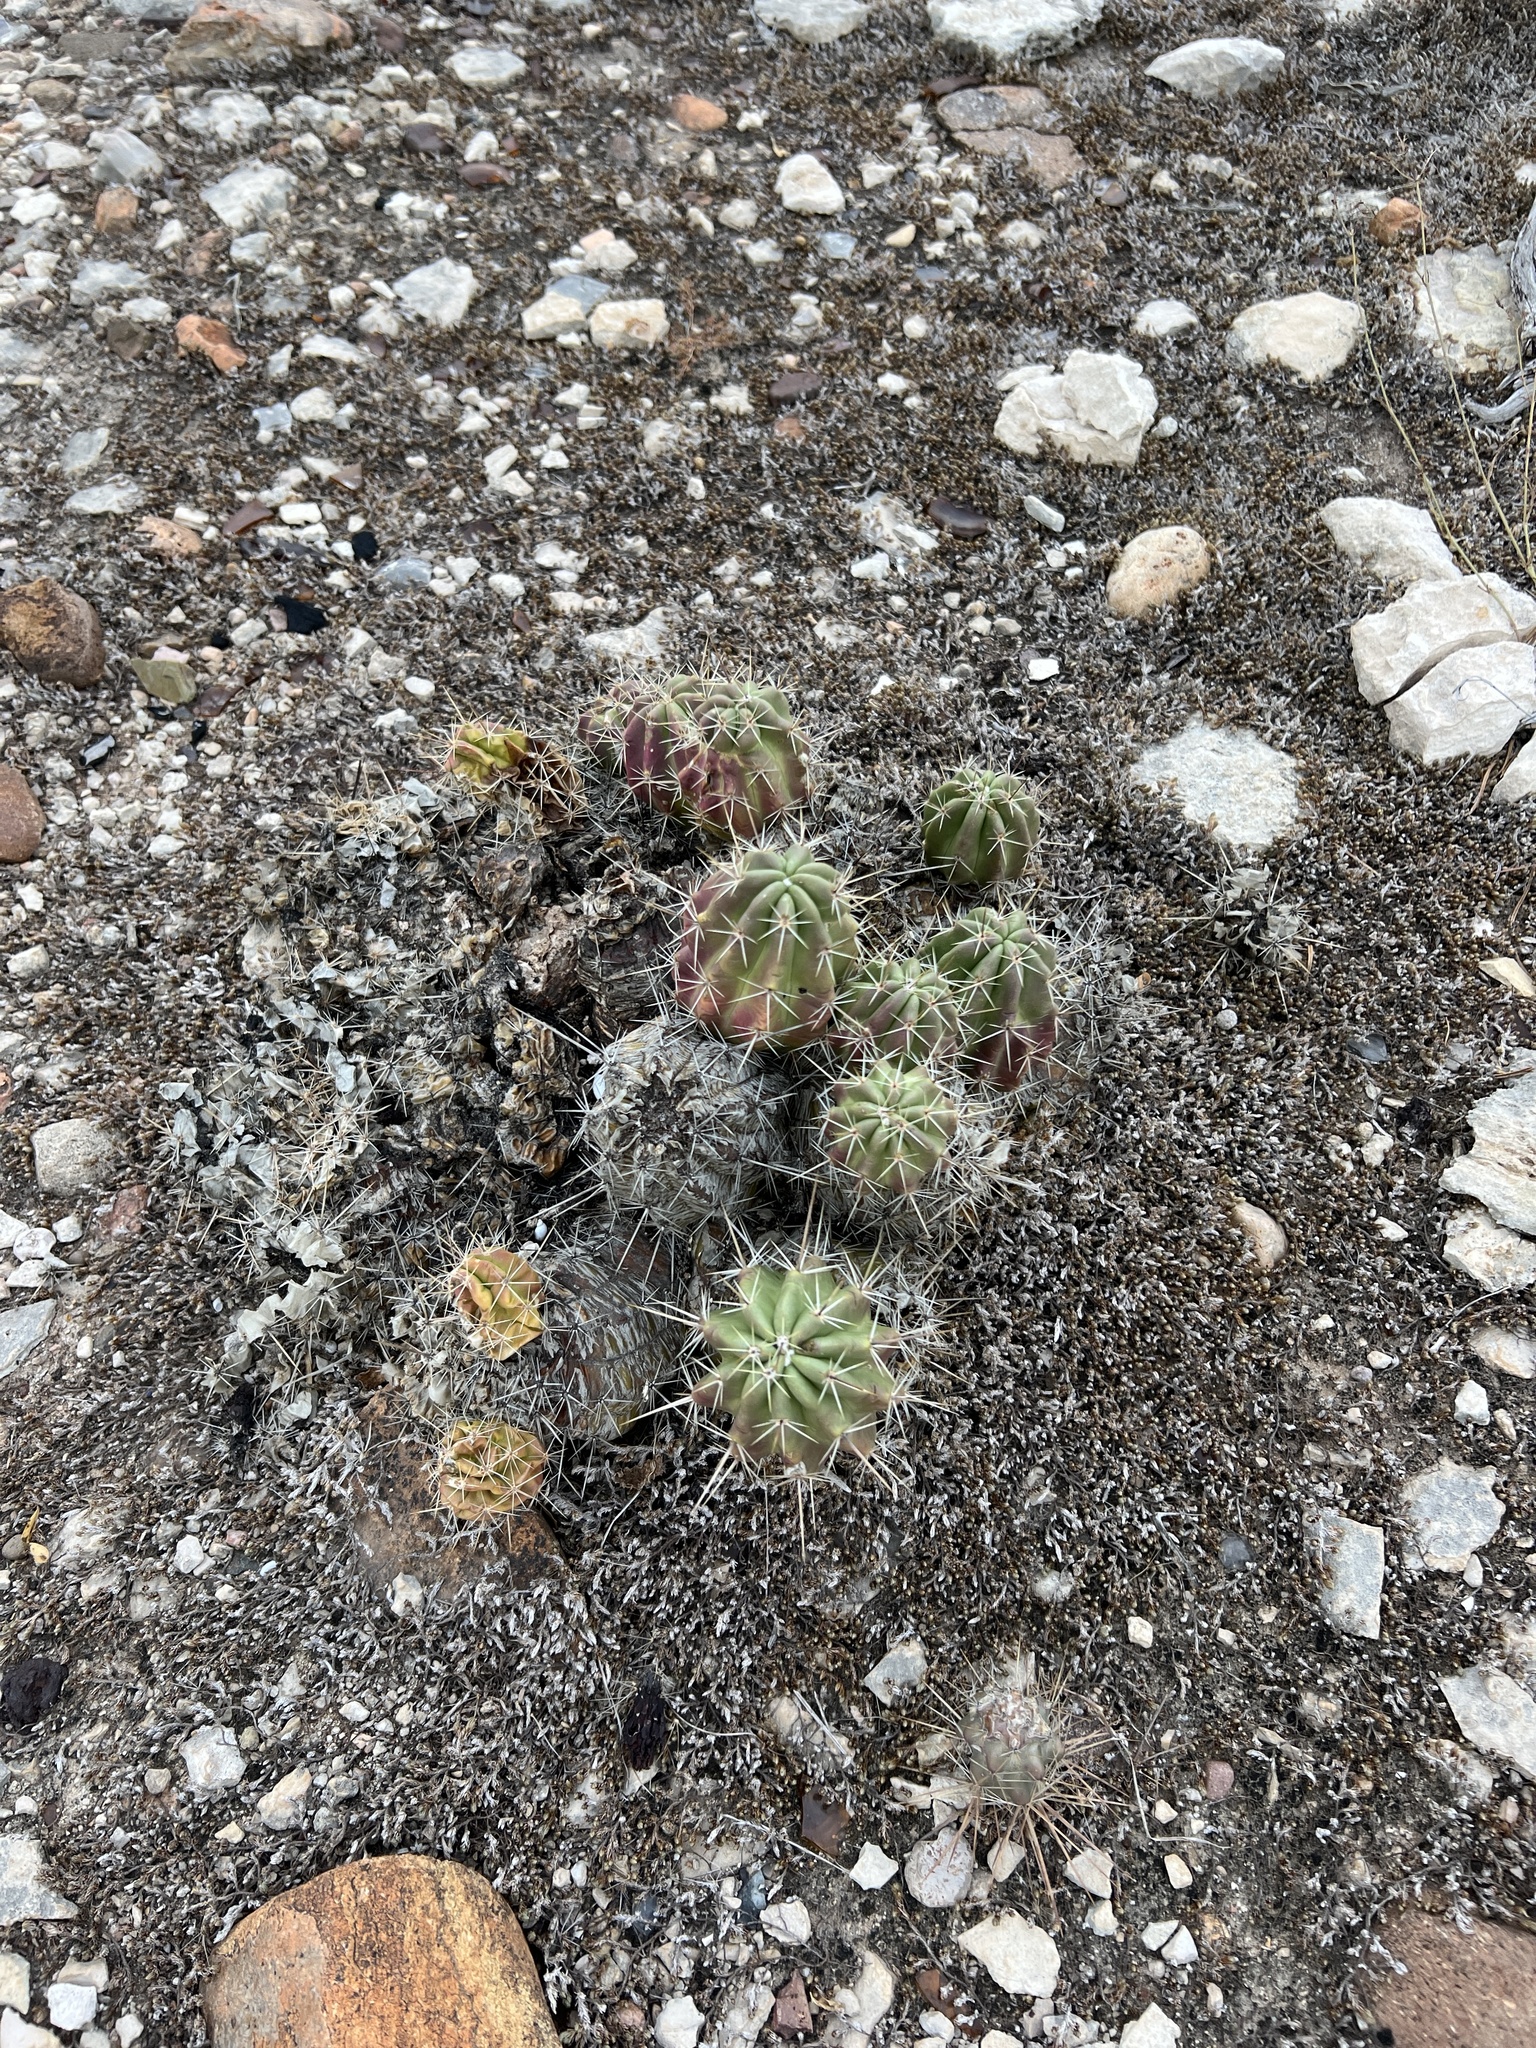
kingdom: Plantae
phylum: Tracheophyta
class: Magnoliopsida
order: Caryophyllales
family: Cactaceae
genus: Echinocereus
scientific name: Echinocereus enneacanthus
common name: Pitaya
